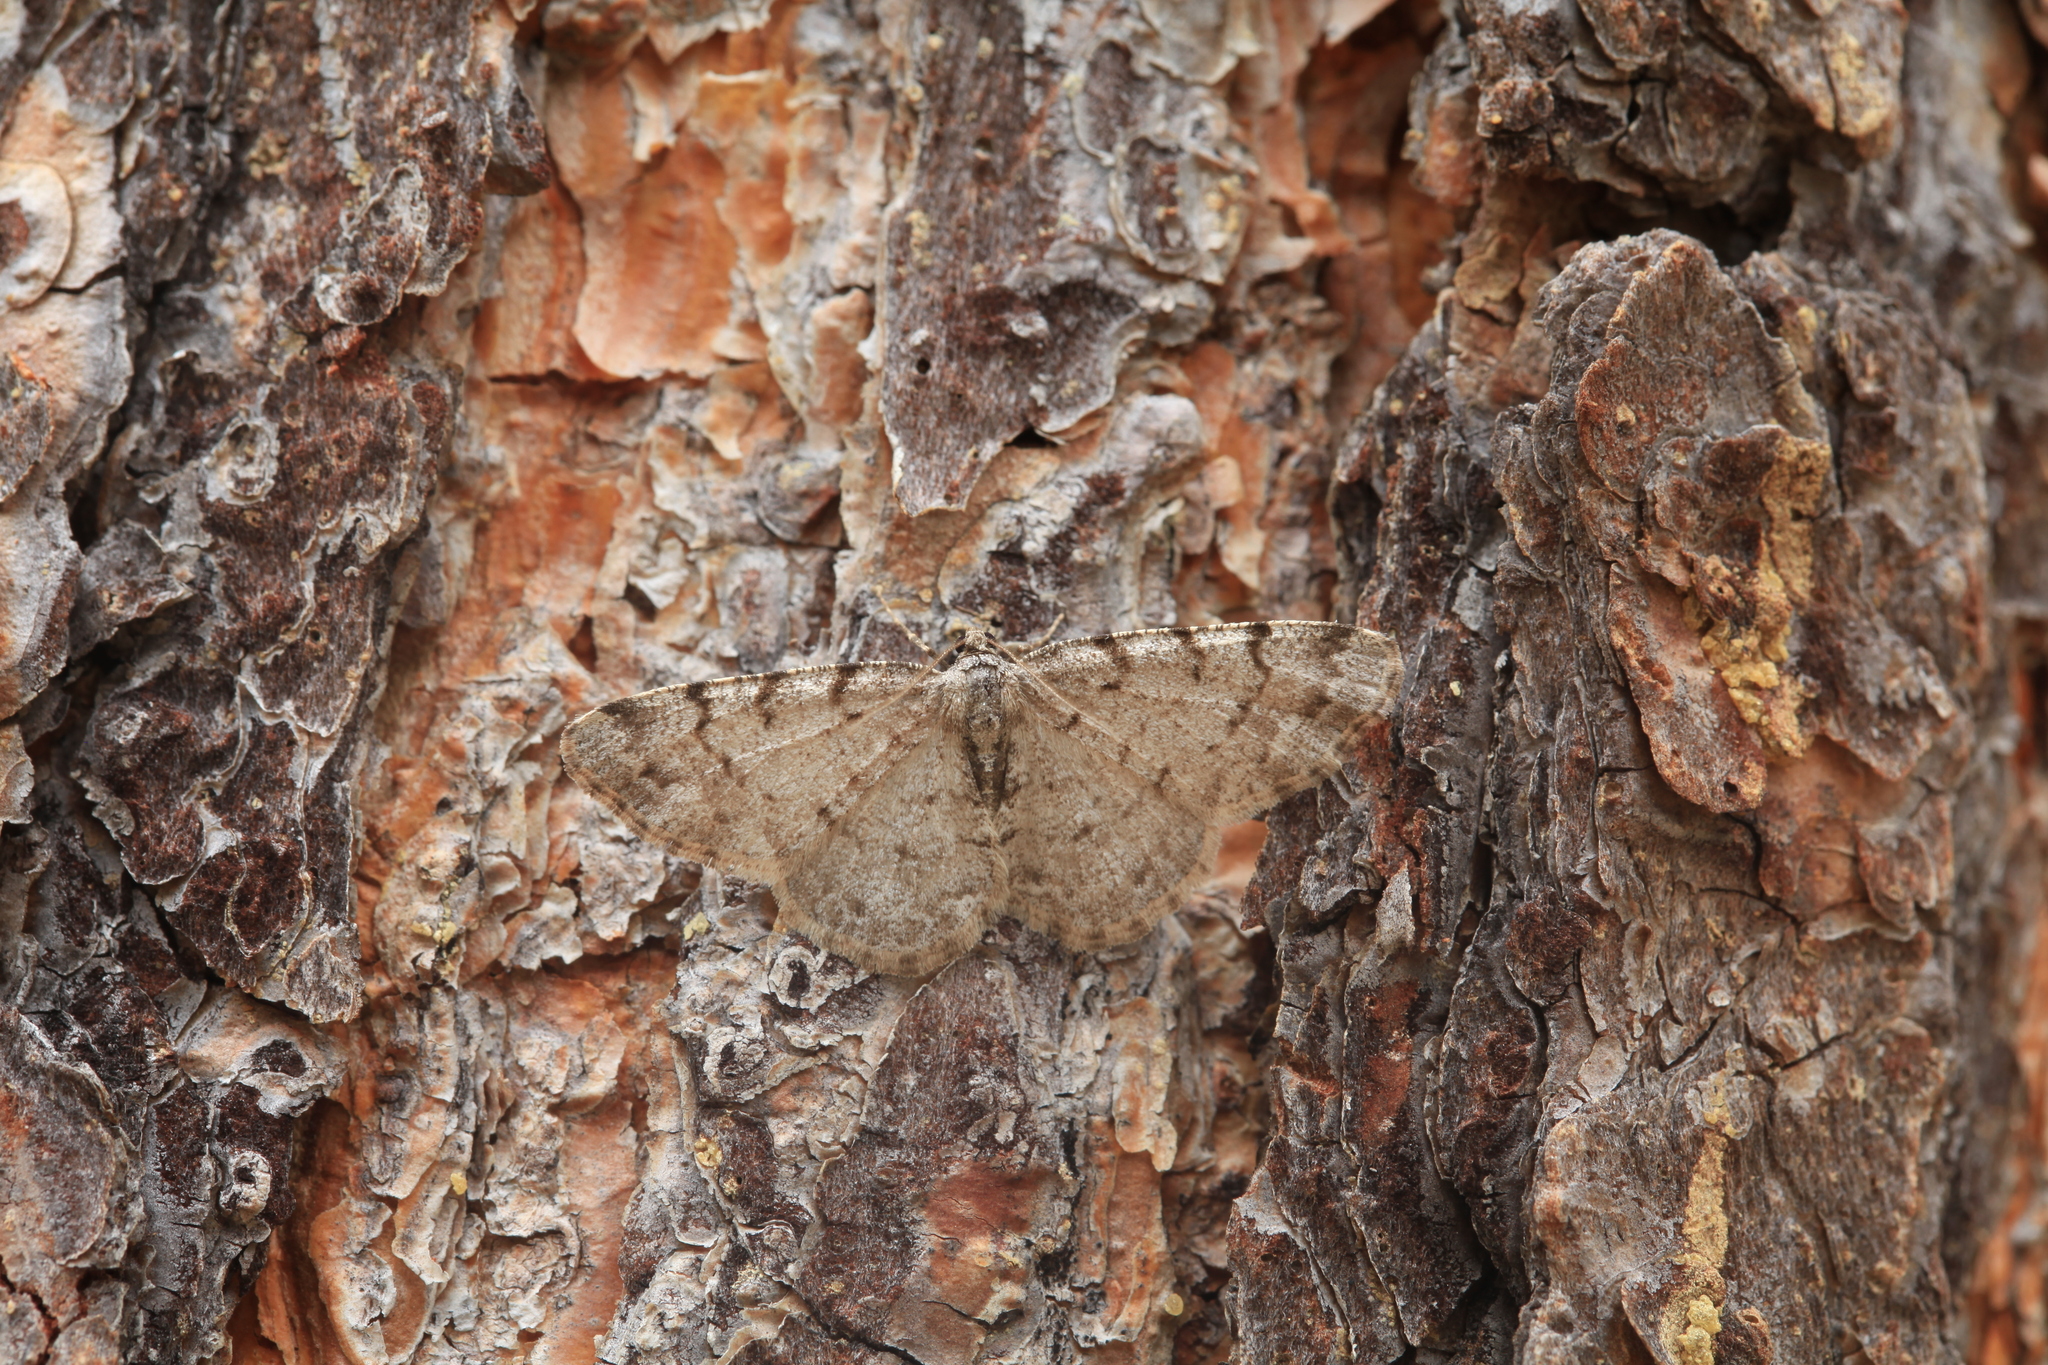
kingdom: Animalia
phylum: Arthropoda
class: Insecta
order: Lepidoptera
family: Geometridae
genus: Aethalura
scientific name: Aethalura punctulata
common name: Grey birch
